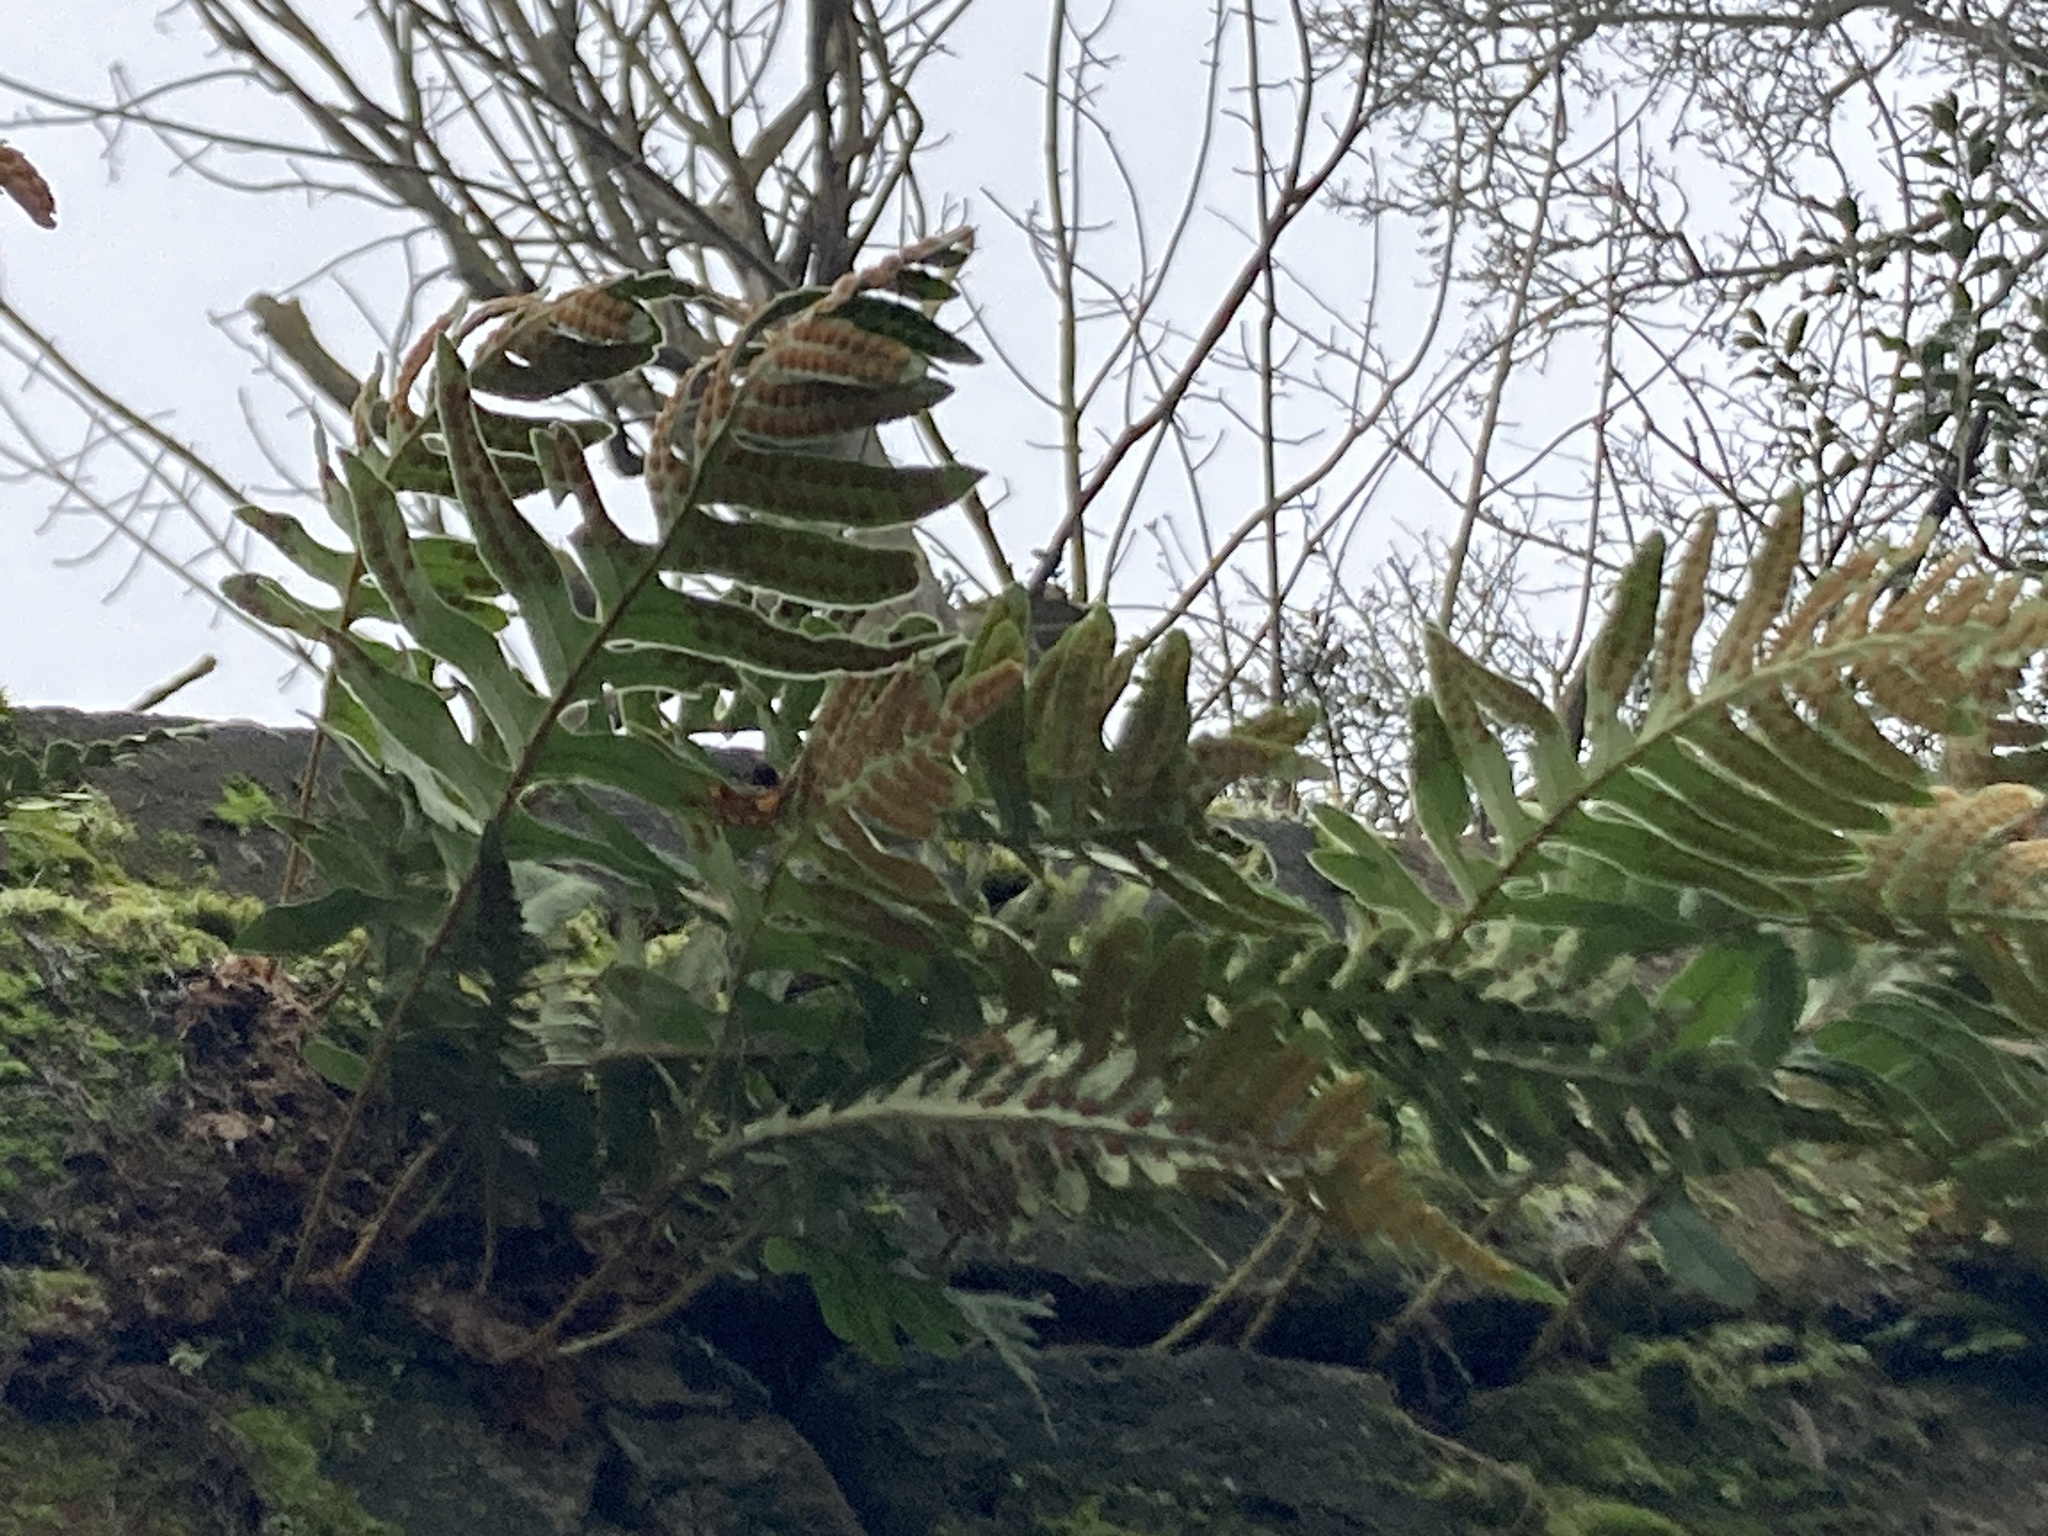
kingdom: Plantae
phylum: Tracheophyta
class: Polypodiopsida
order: Polypodiales
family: Polypodiaceae
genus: Polypodium
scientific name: Polypodium
